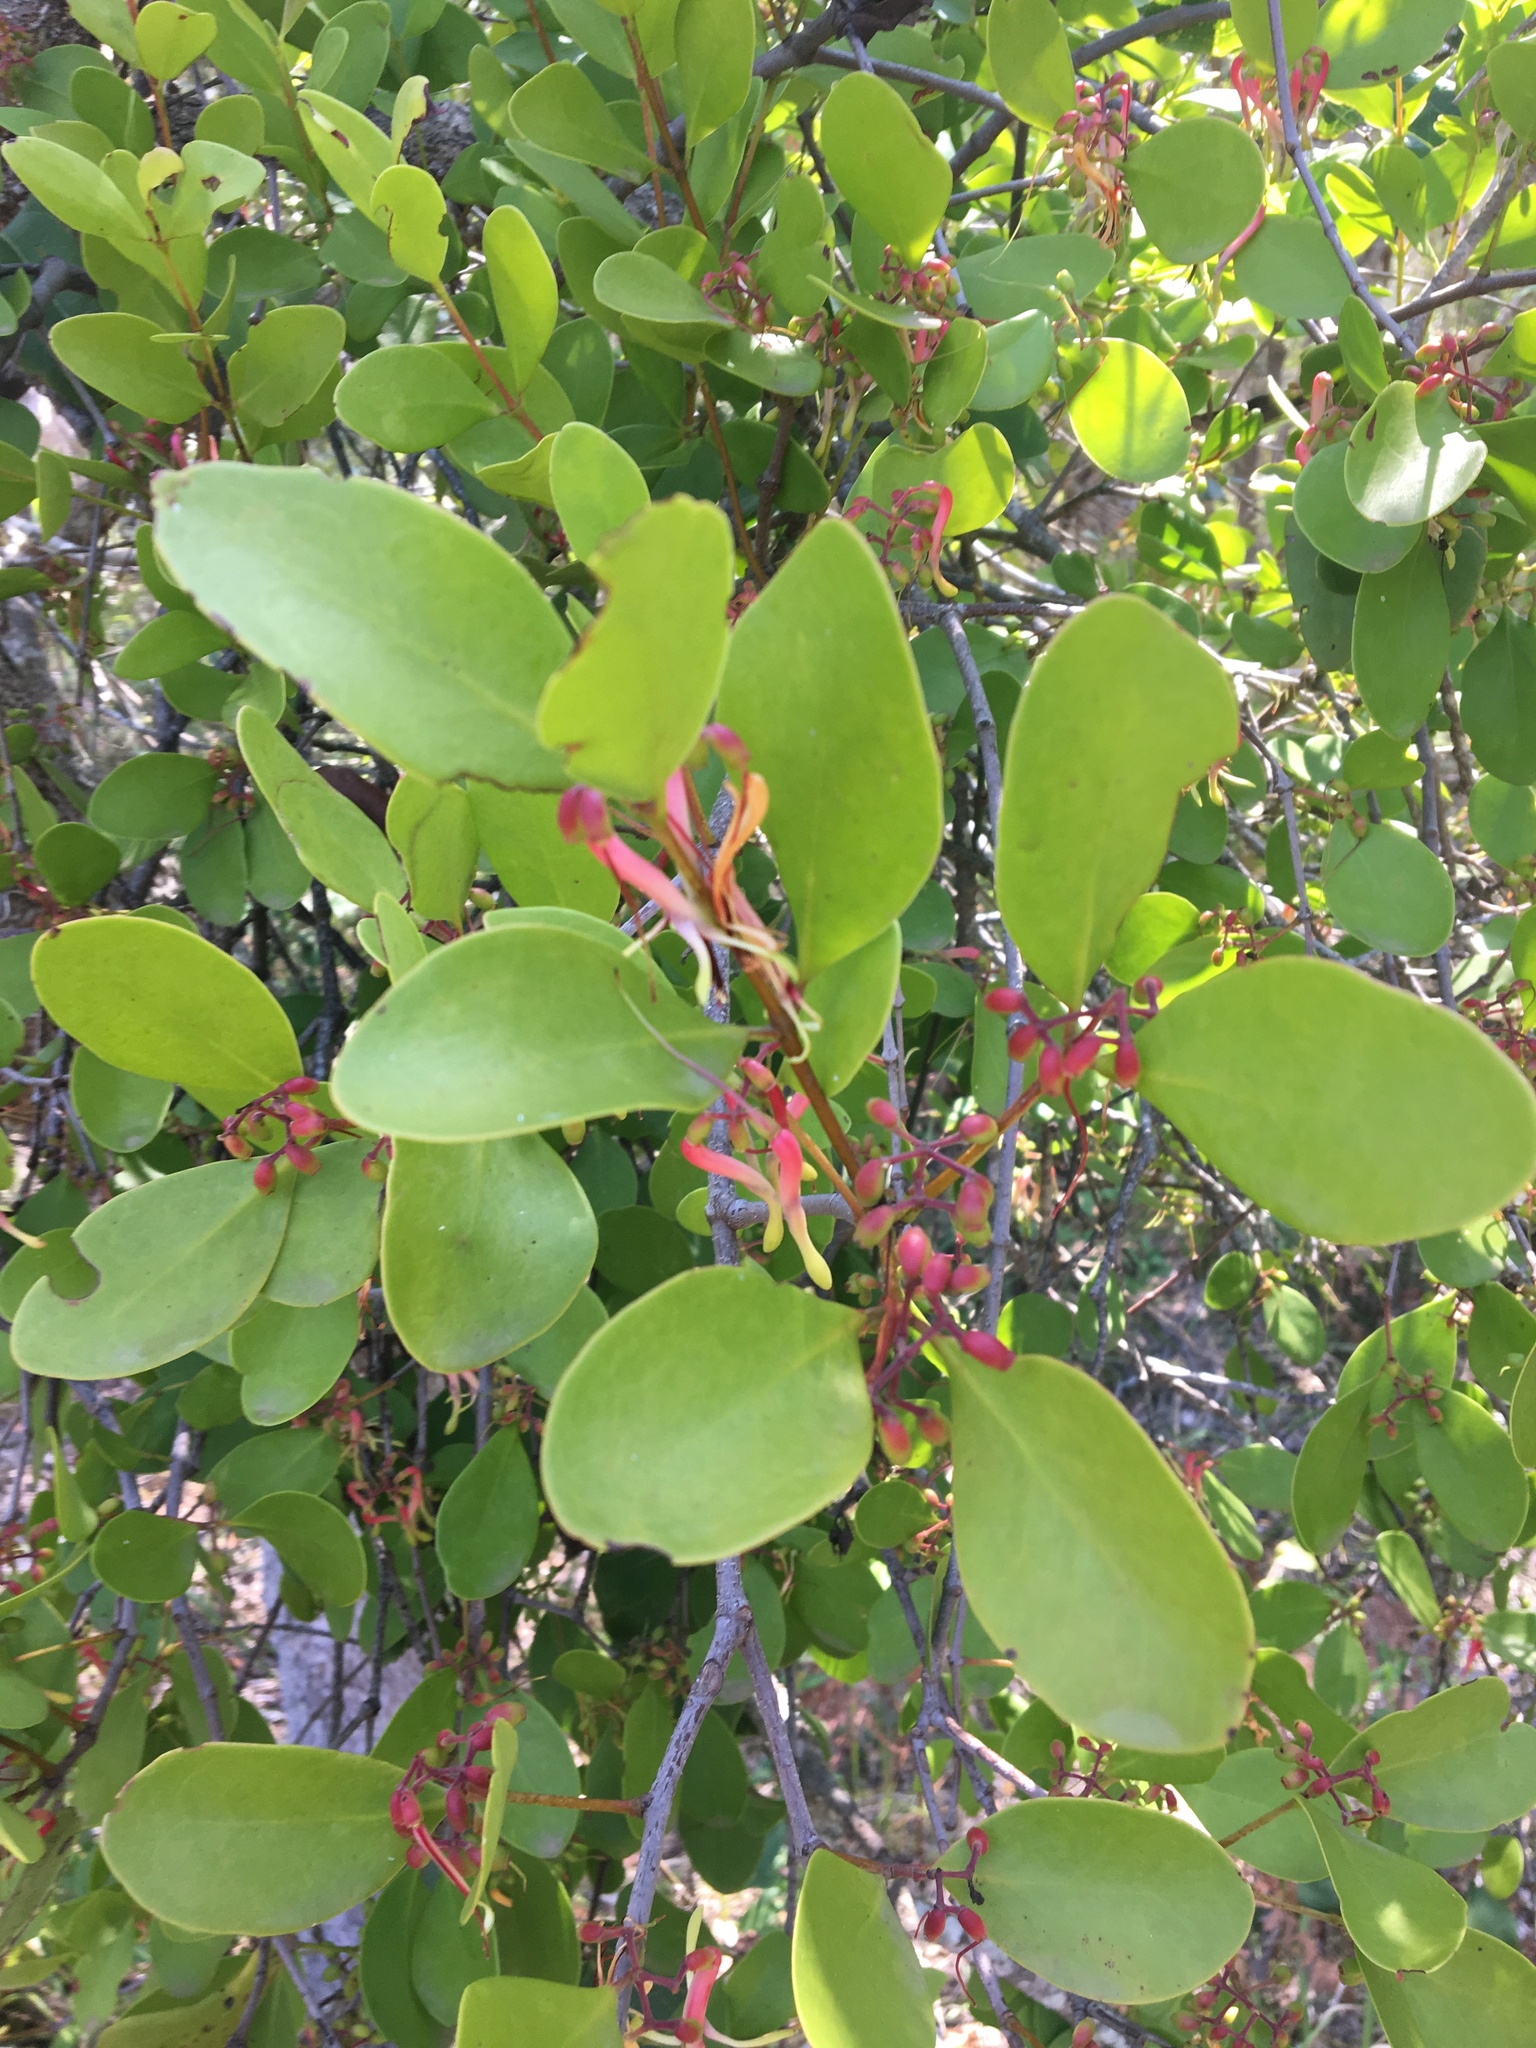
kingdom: Plantae
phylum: Tracheophyta
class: Magnoliopsida
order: Santalales
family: Loranthaceae
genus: Muellerina
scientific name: Muellerina celastroides
